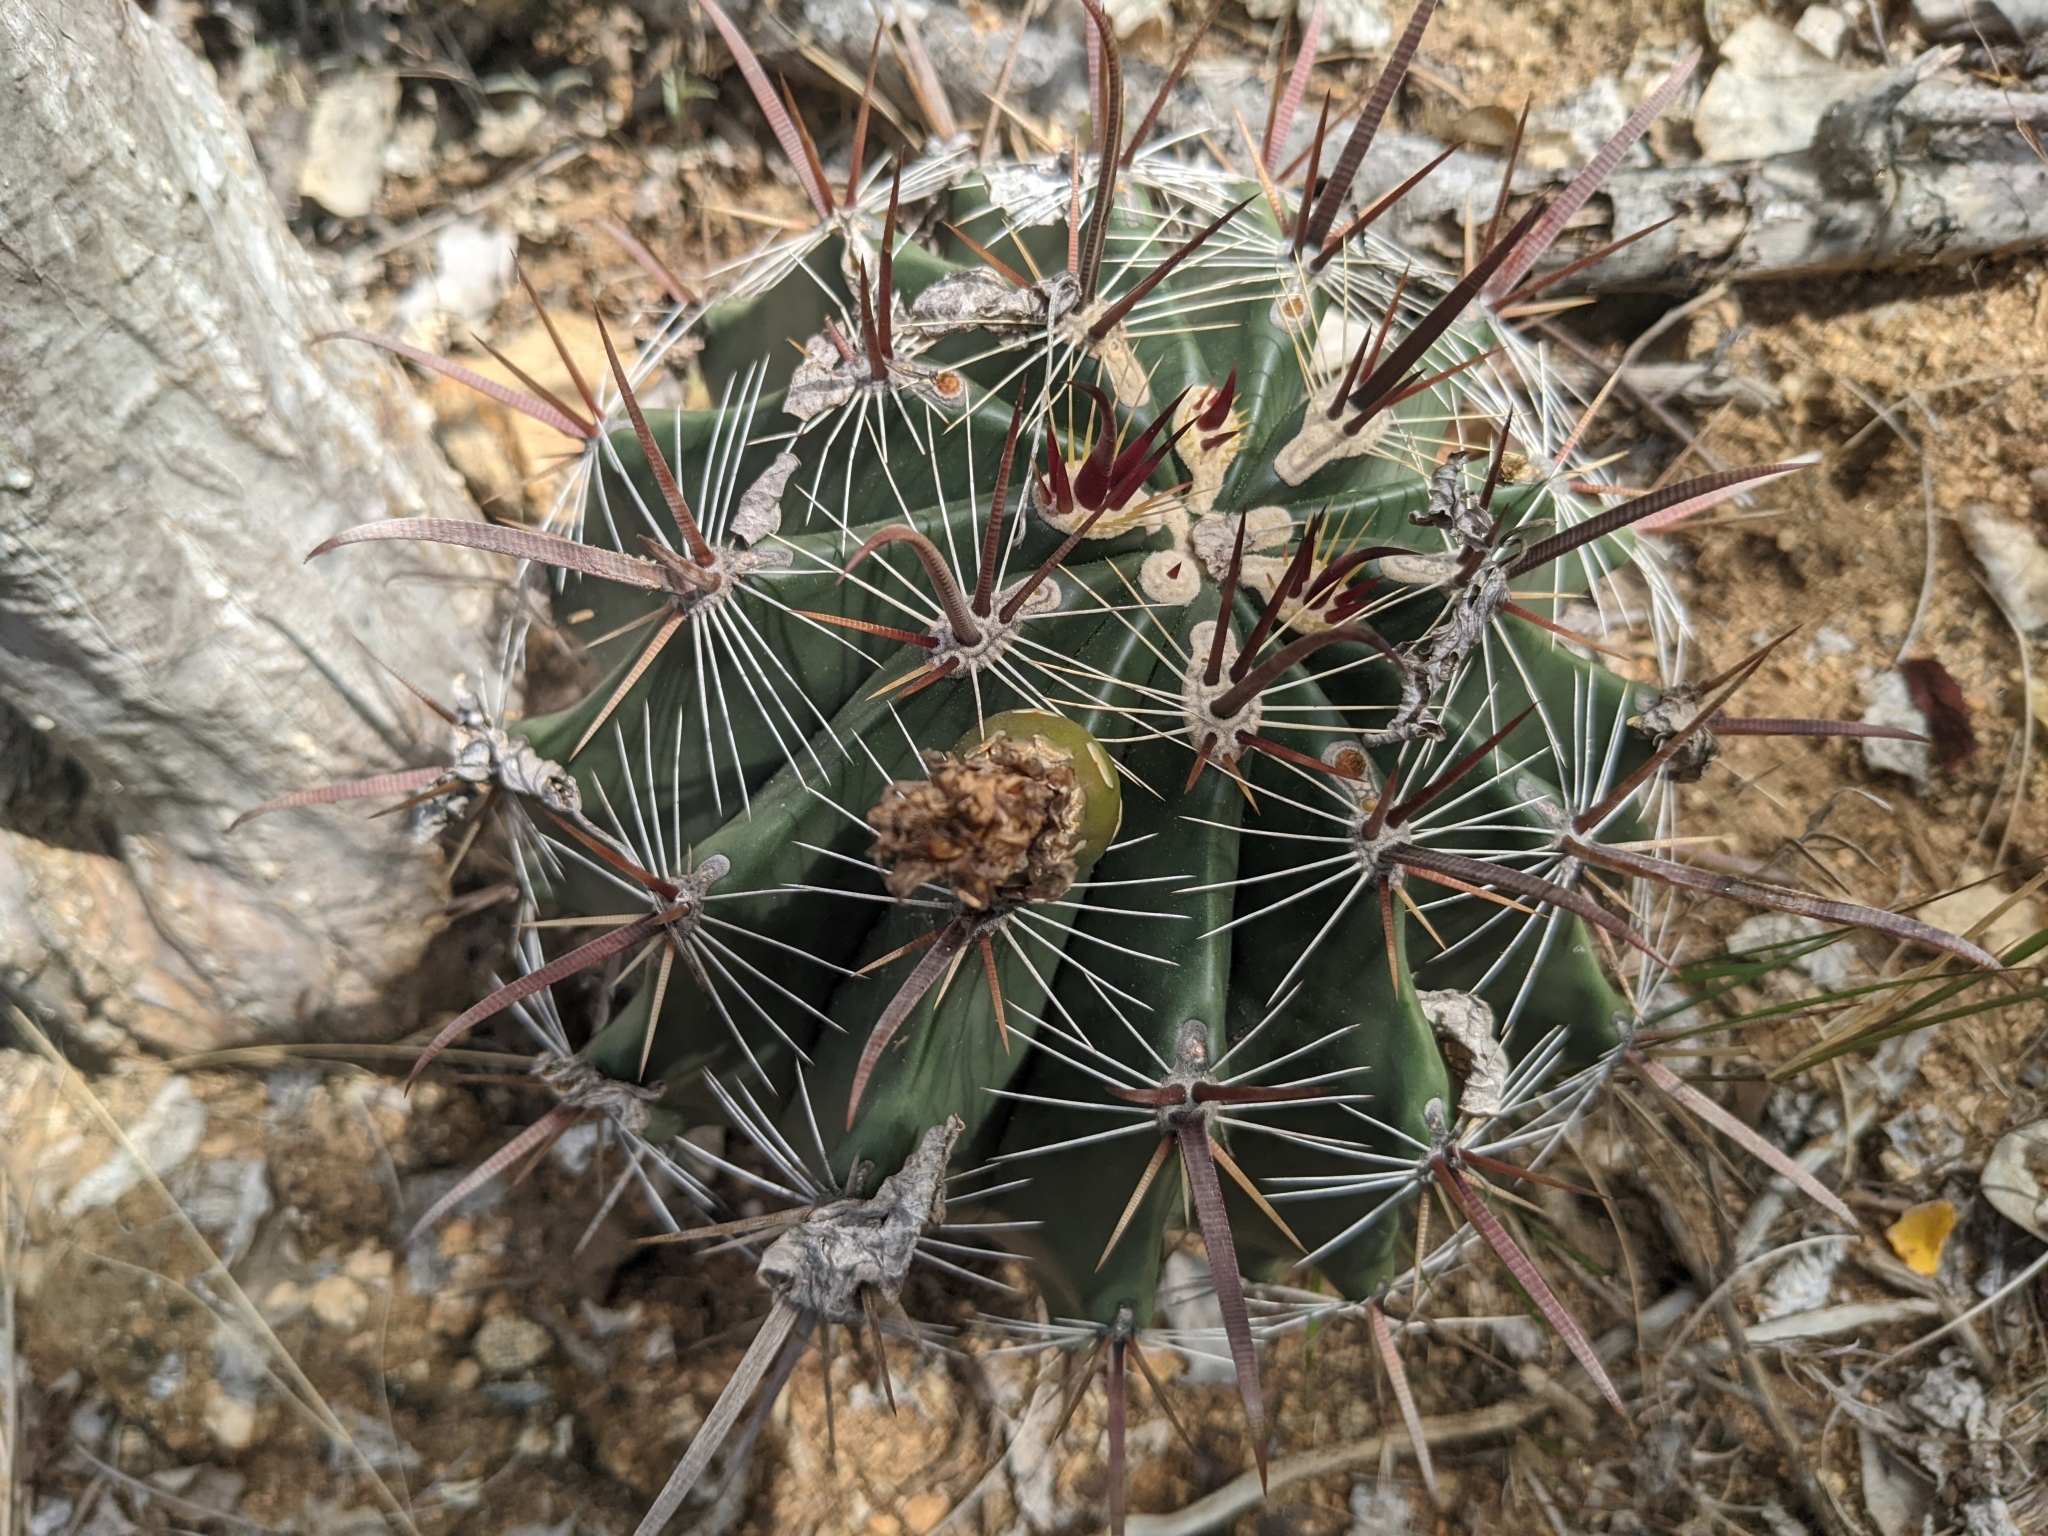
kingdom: Plantae
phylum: Tracheophyta
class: Magnoliopsida
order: Caryophyllales
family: Cactaceae
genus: Ferocactus
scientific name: Ferocactus townsendianus
